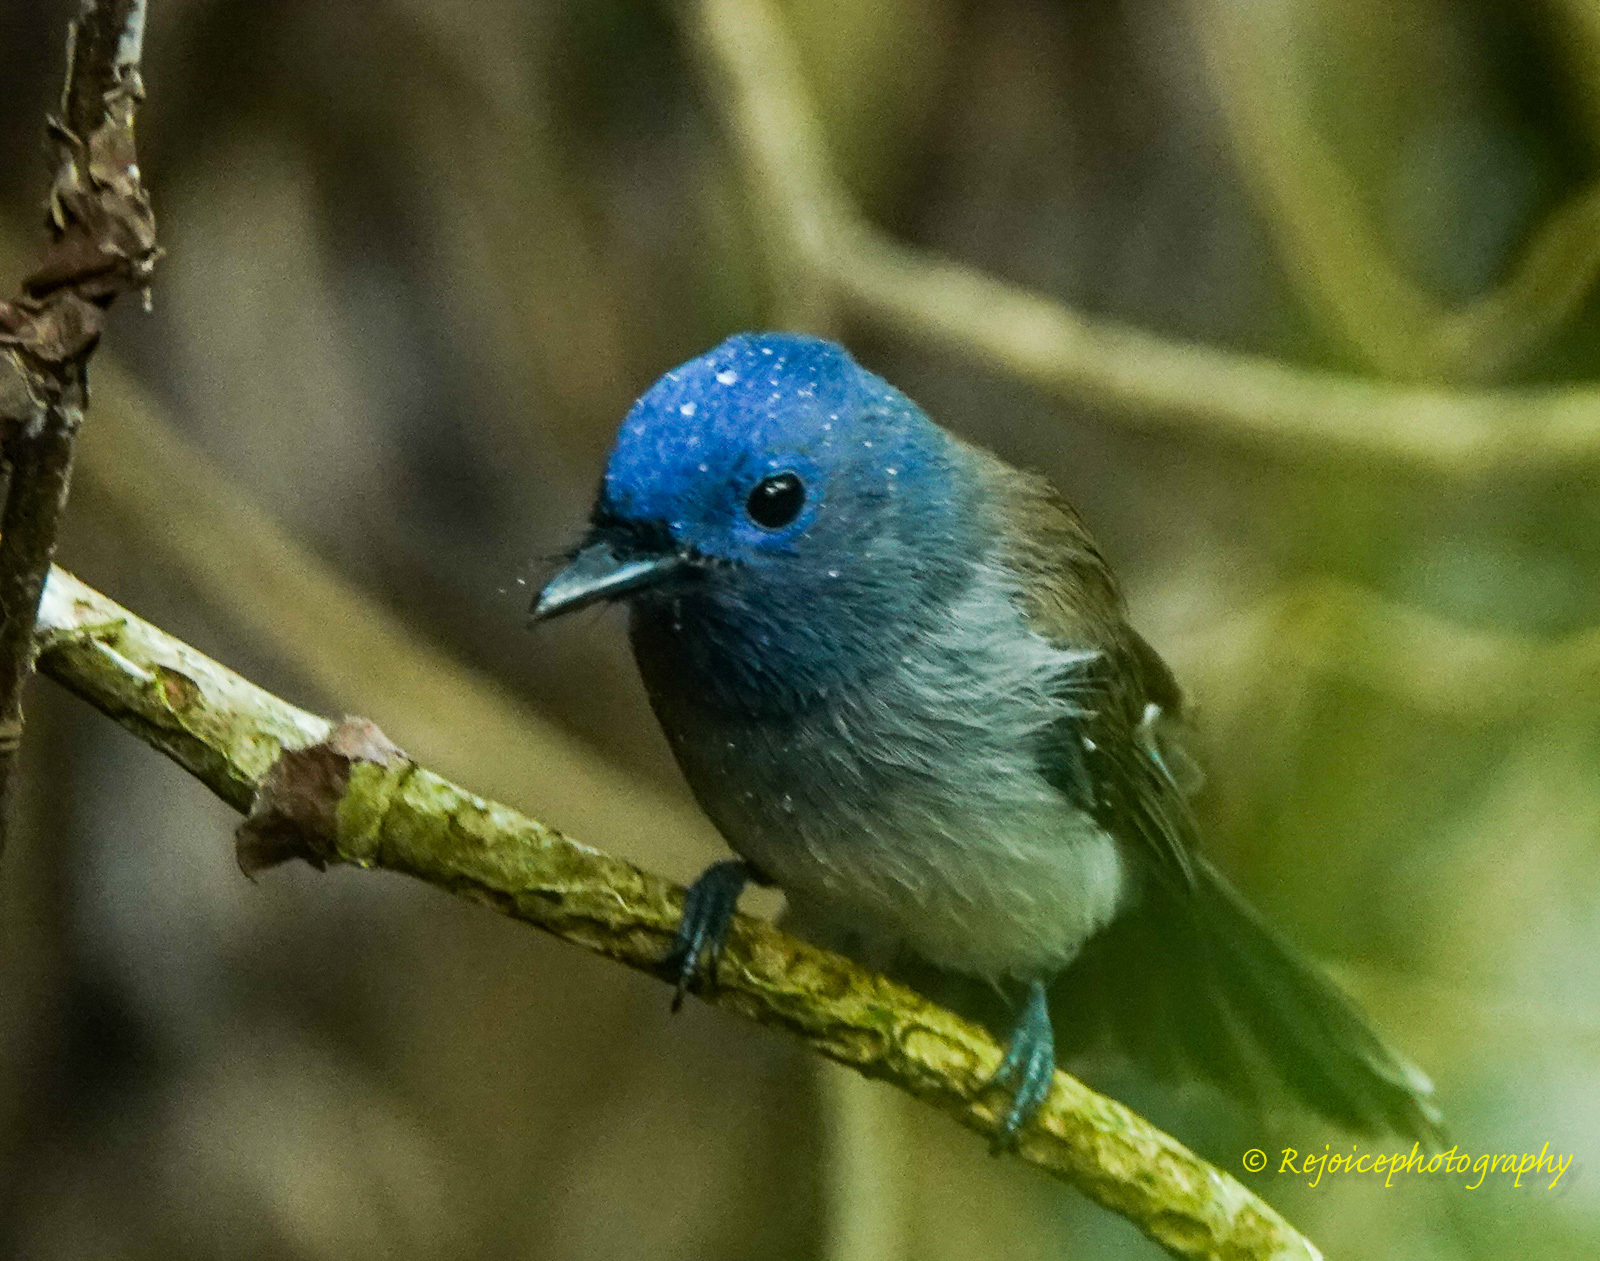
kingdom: Animalia
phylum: Chordata
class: Aves
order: Passeriformes
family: Monarchidae
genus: Hypothymis
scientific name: Hypothymis azurea
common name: Black-naped monarch
